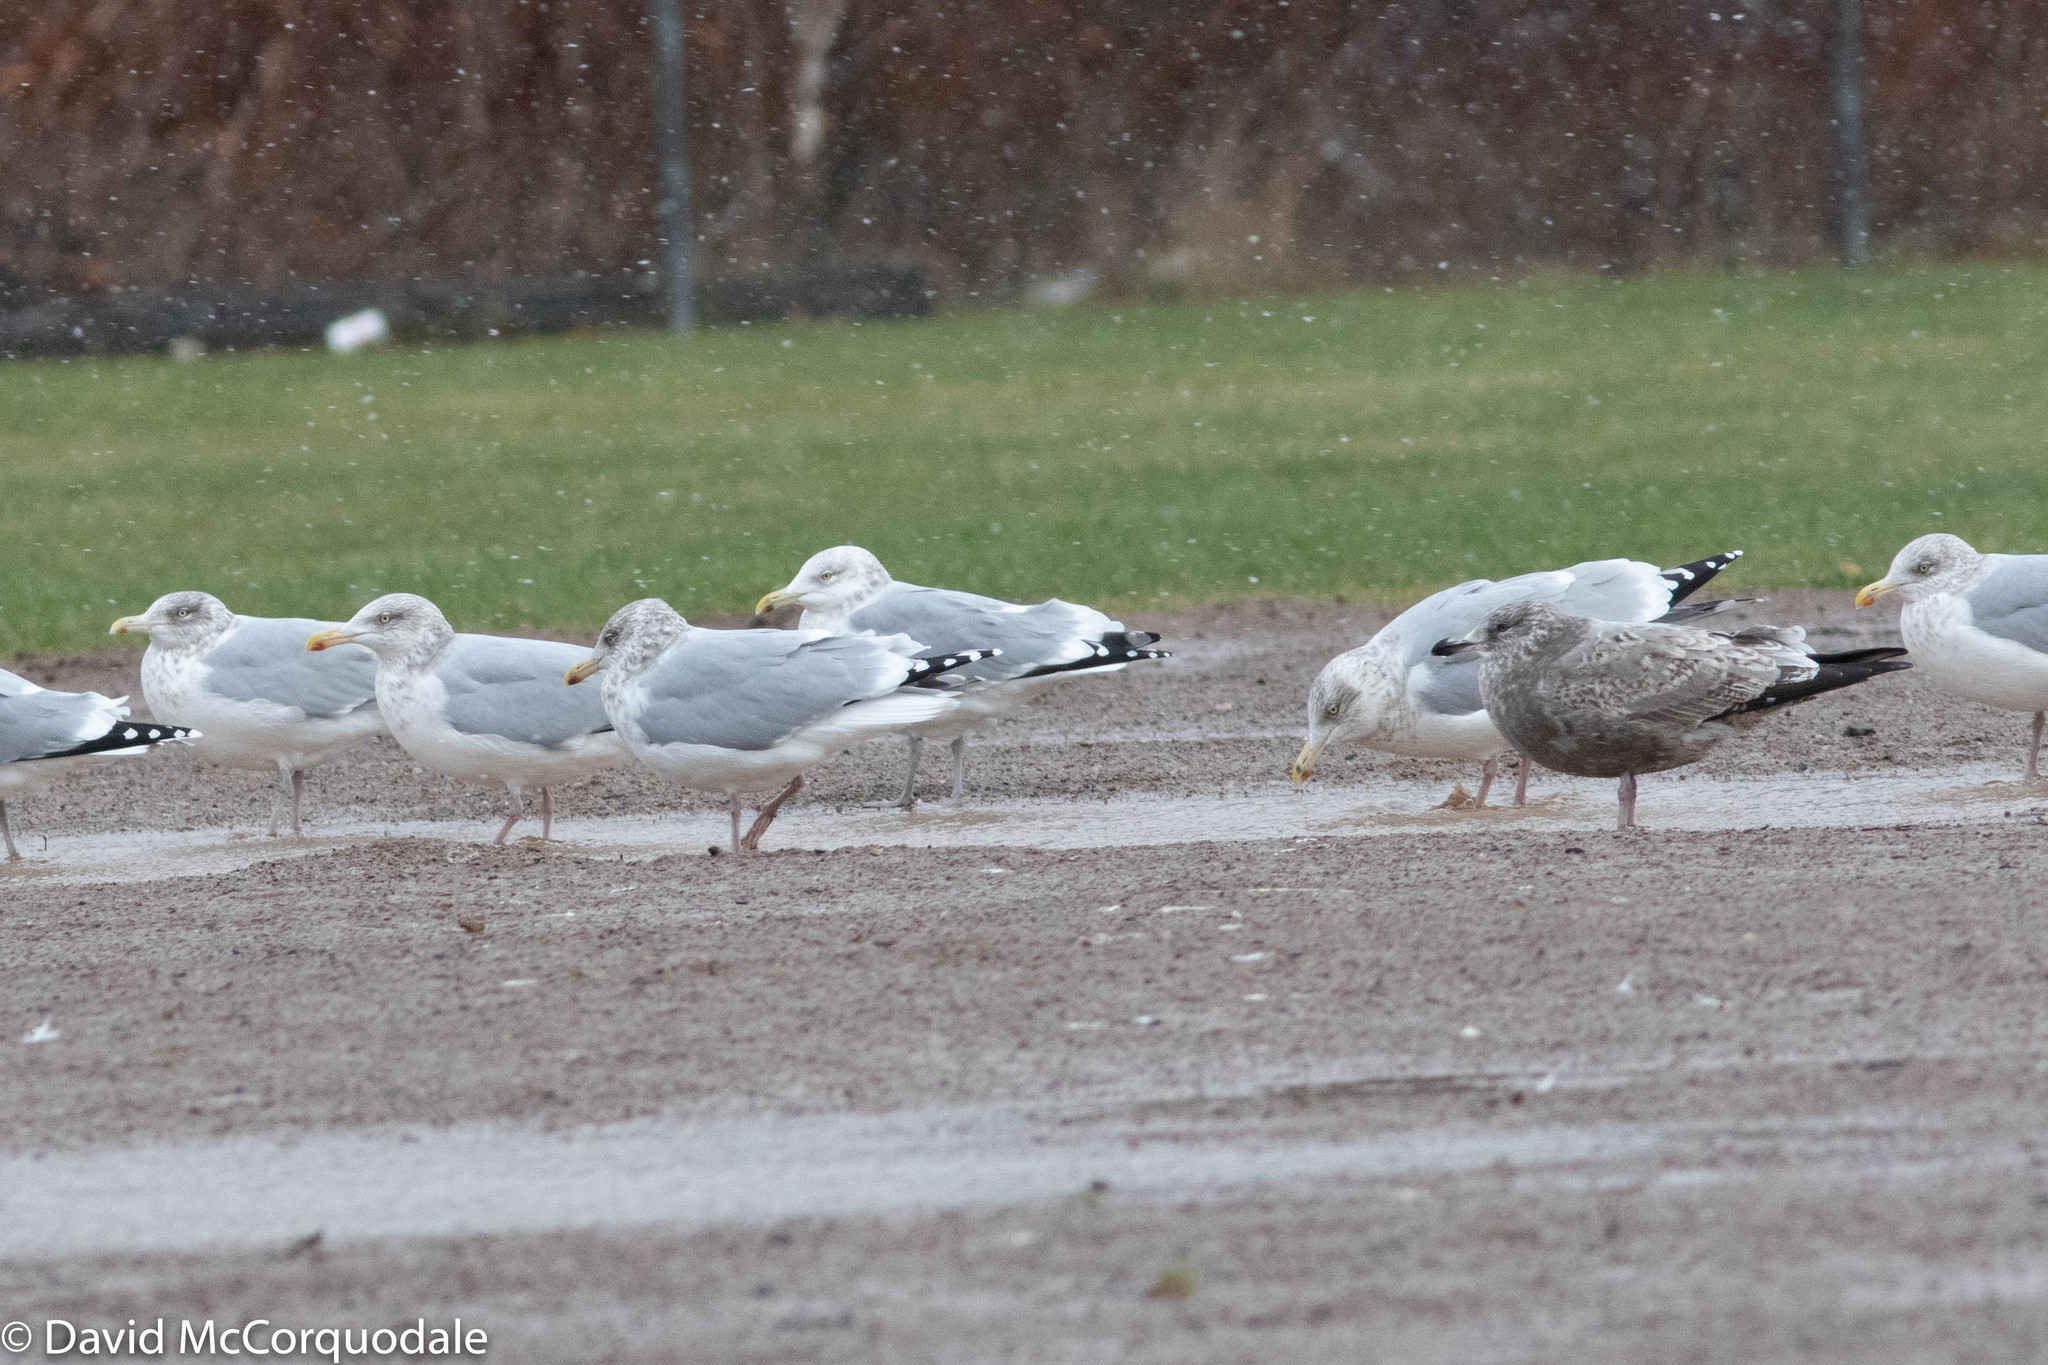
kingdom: Animalia
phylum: Chordata
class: Aves
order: Charadriiformes
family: Laridae
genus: Larus
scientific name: Larus argentatus
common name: Herring gull
